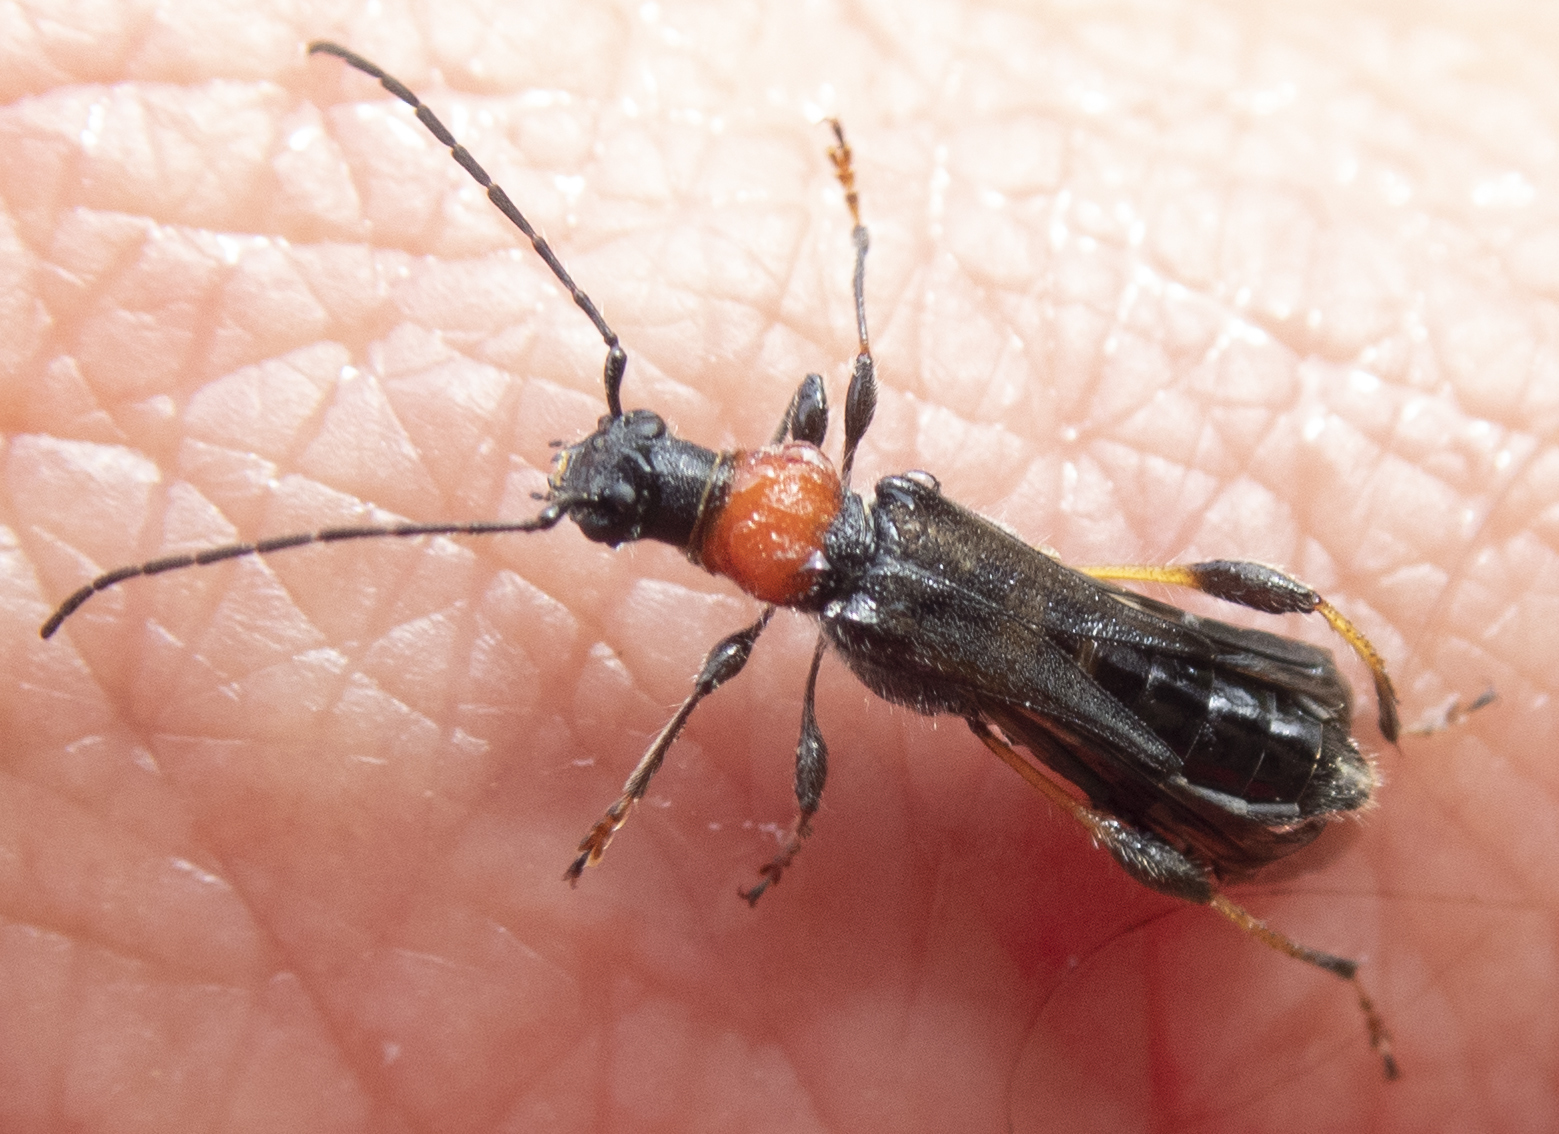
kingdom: Animalia
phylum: Arthropoda
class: Insecta
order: Coleoptera
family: Cerambycidae
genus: Callimoxys
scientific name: Callimoxys sanguinicollis
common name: Blood-necked longhorn beetle
